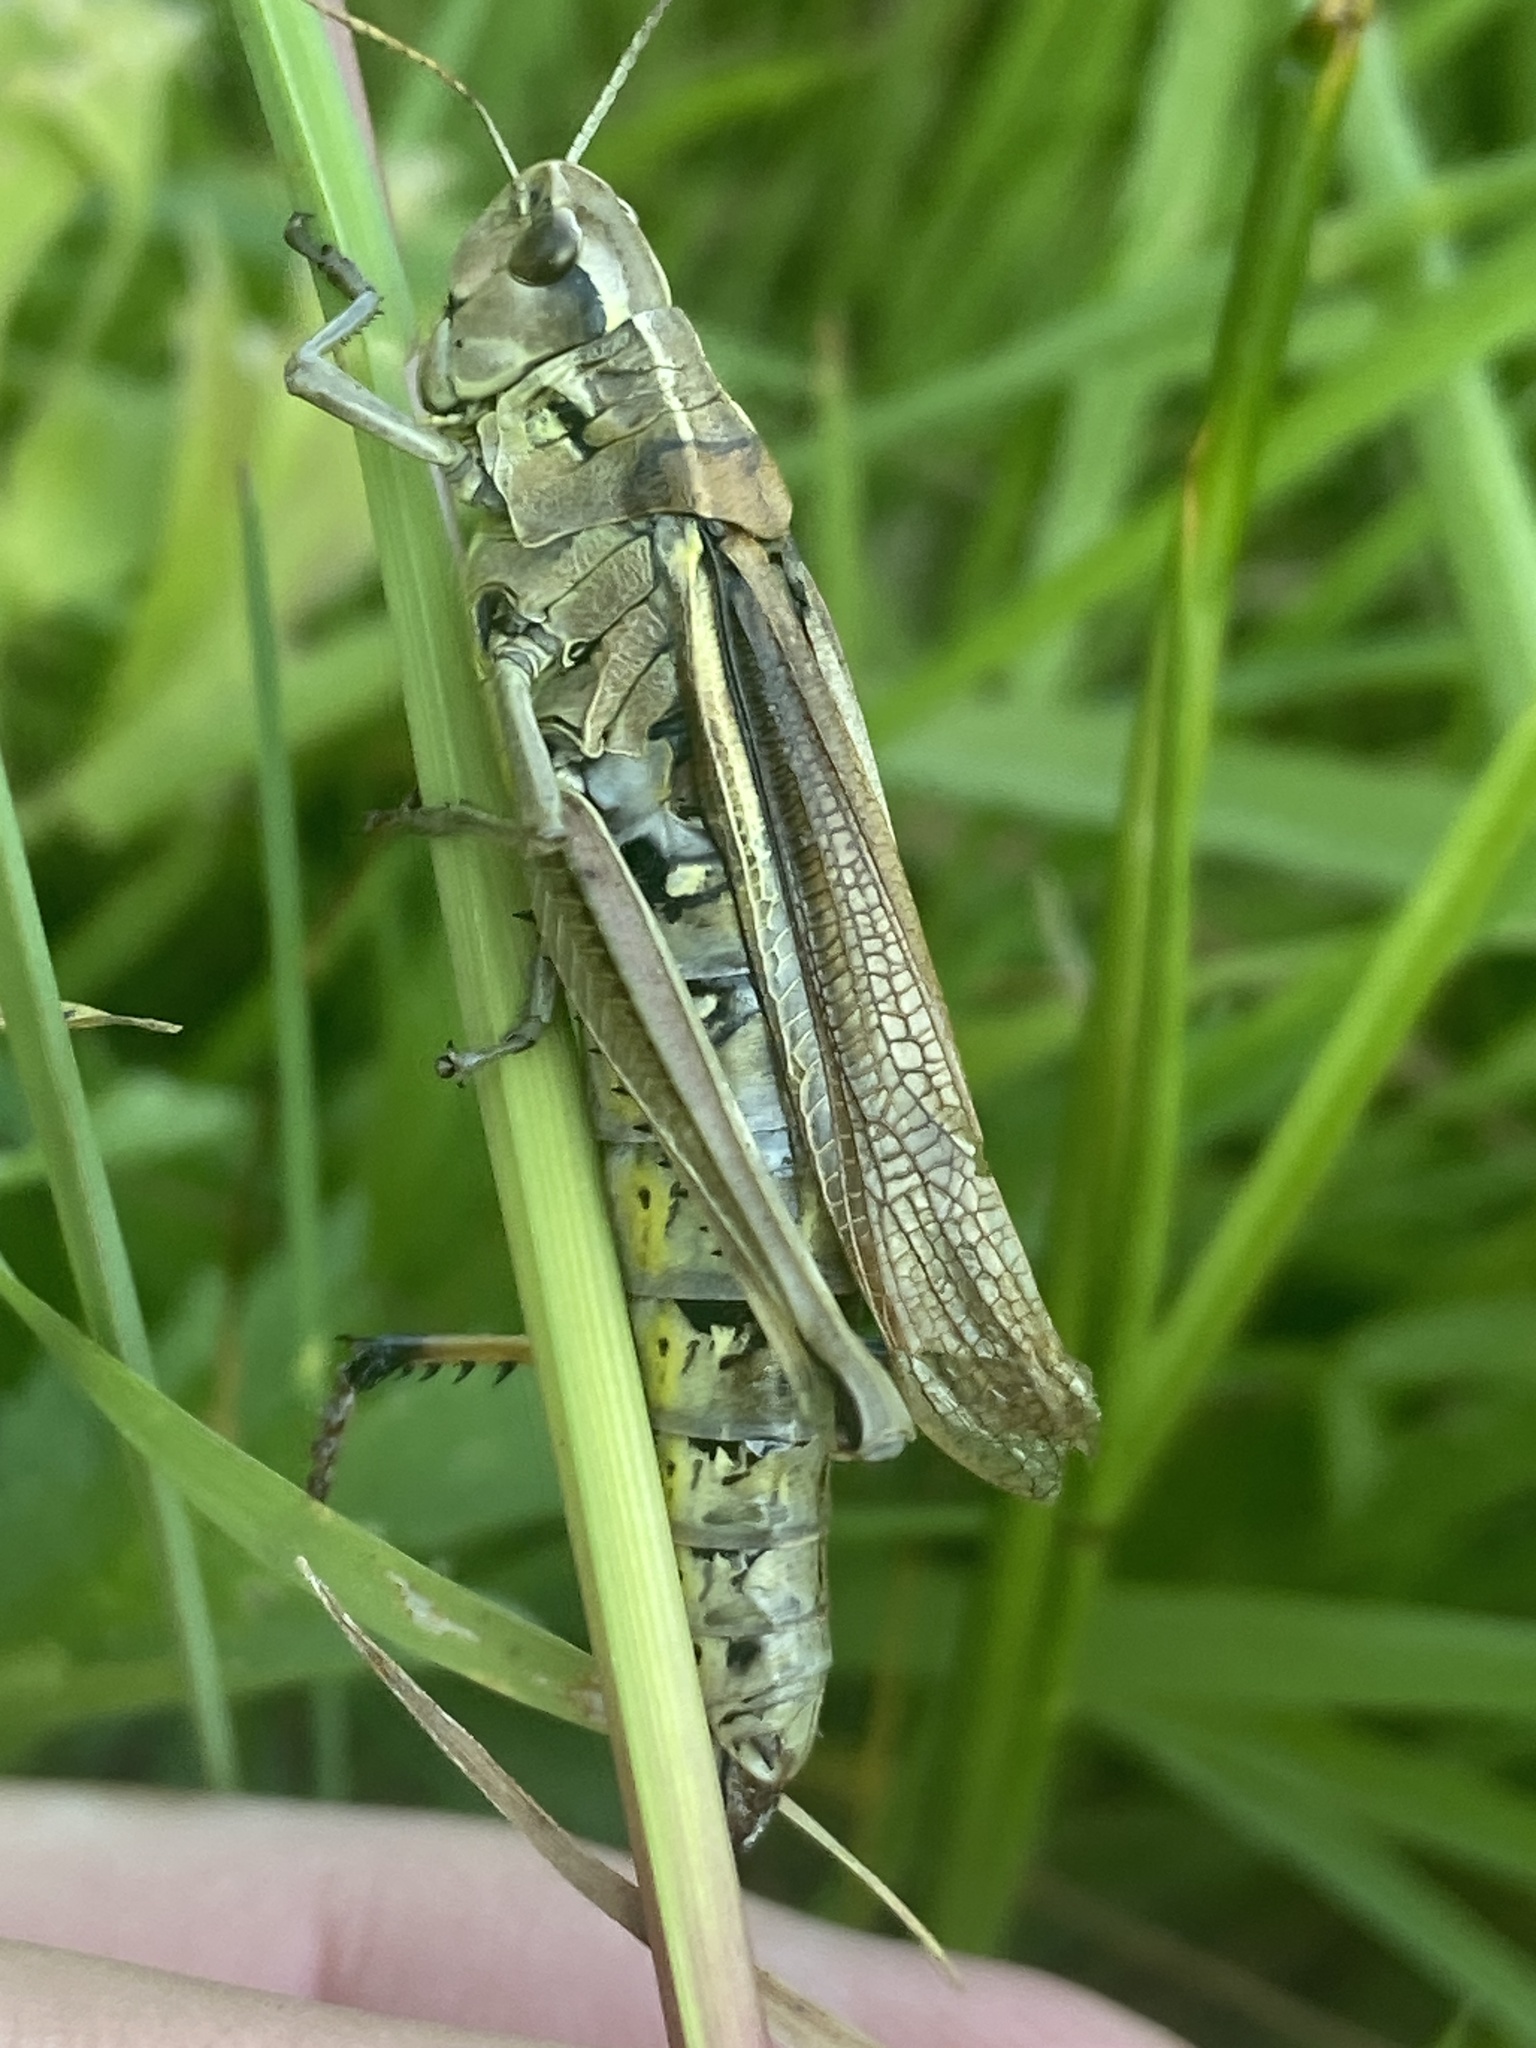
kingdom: Animalia
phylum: Arthropoda
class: Insecta
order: Orthoptera
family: Acrididae
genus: Stethophyma
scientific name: Stethophyma grossum
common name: Large marsh grasshopper
